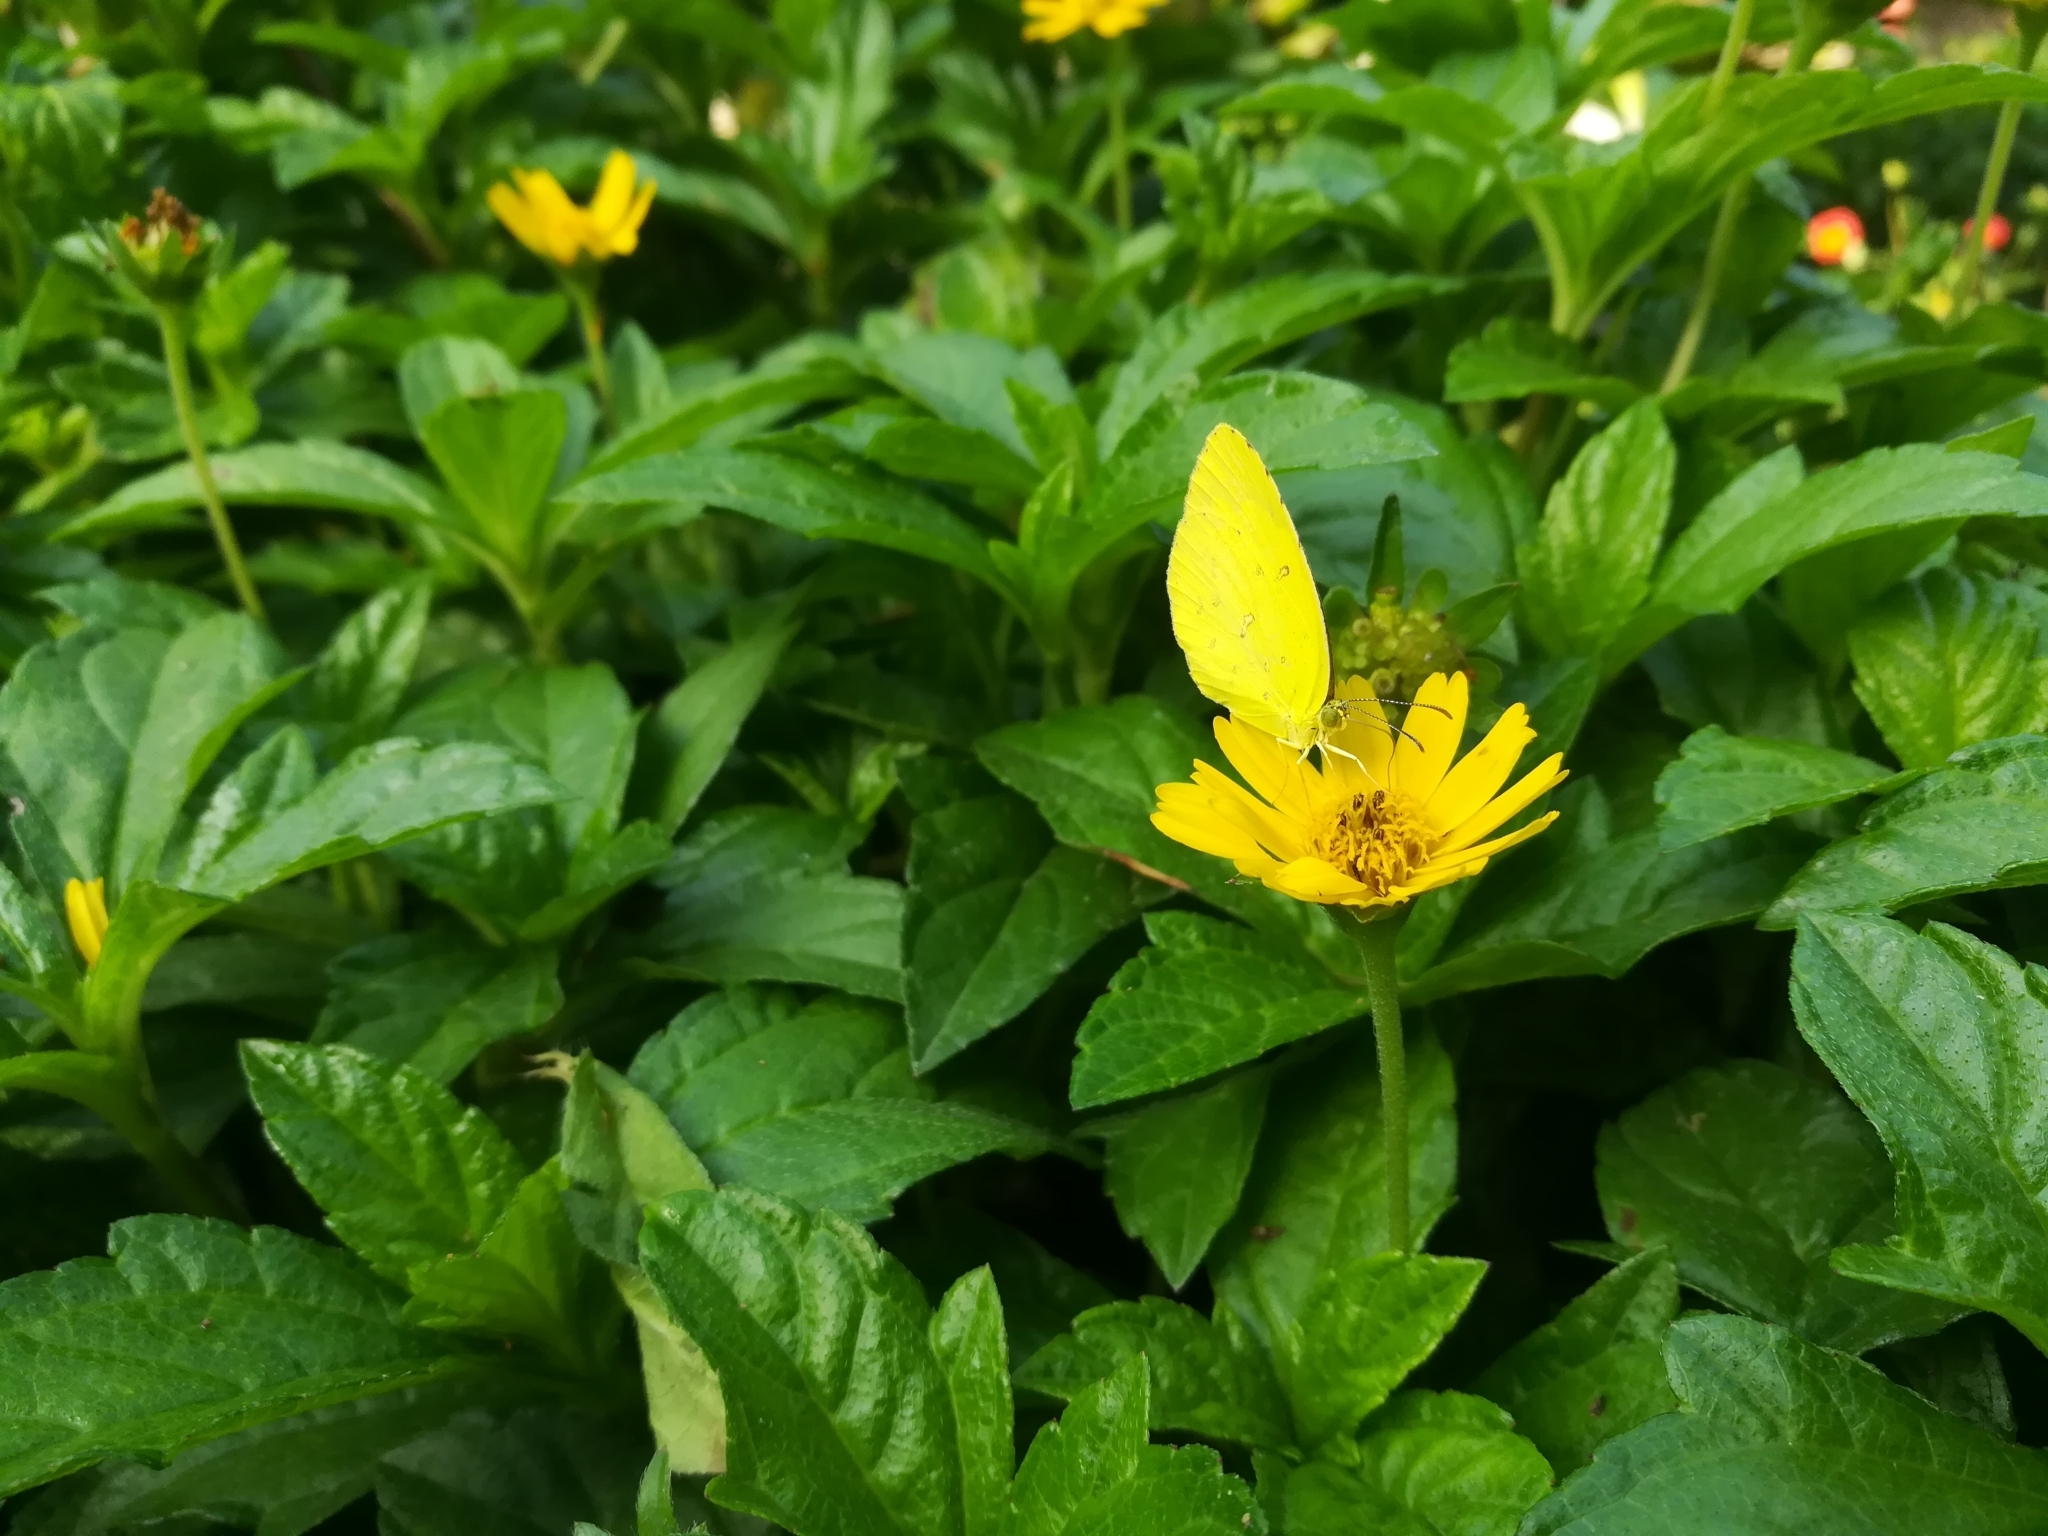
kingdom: Animalia
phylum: Arthropoda
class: Insecta
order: Lepidoptera
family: Pieridae
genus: Eurema
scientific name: Eurema hecabe
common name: Pale grass yellow
